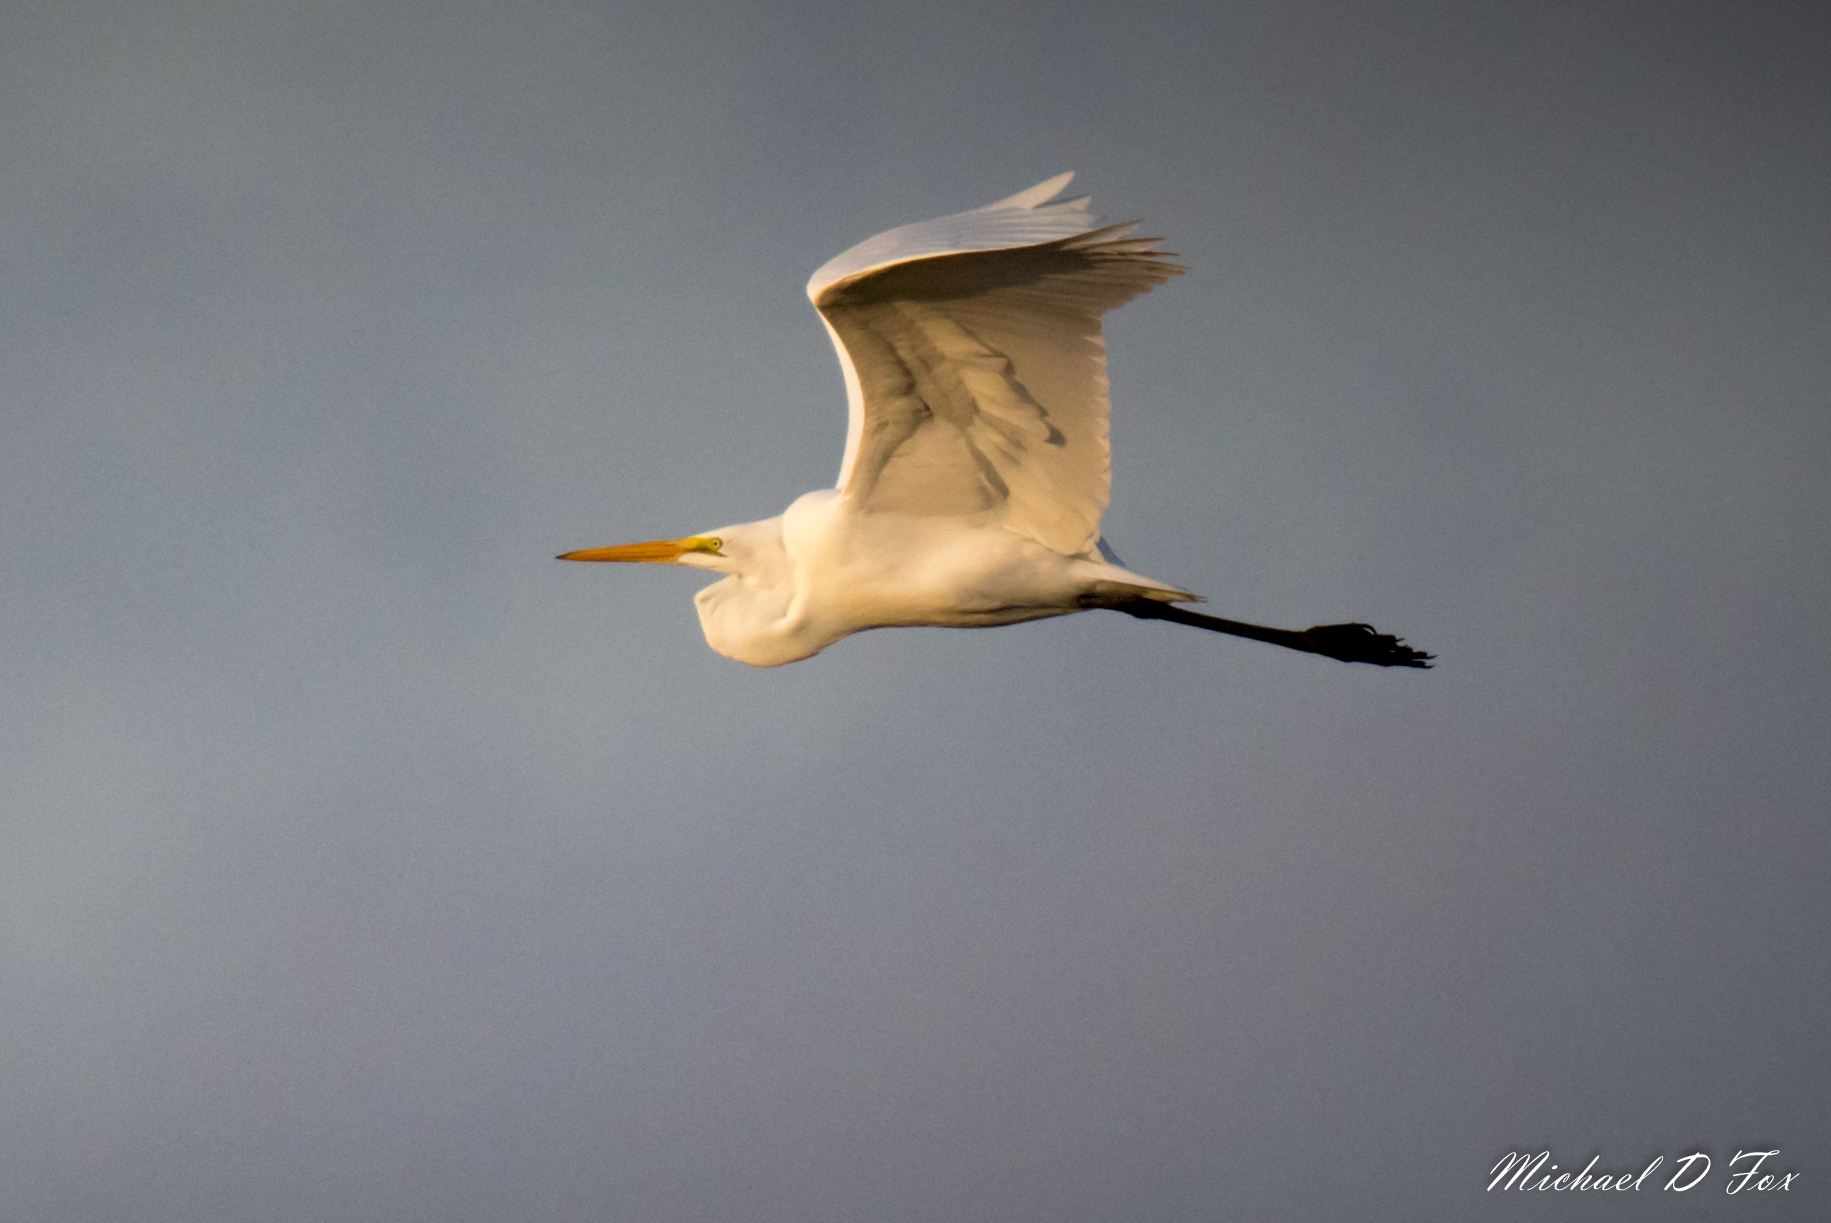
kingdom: Animalia
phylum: Chordata
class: Aves
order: Pelecaniformes
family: Ardeidae
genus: Ardea
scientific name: Ardea alba
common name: Great egret
